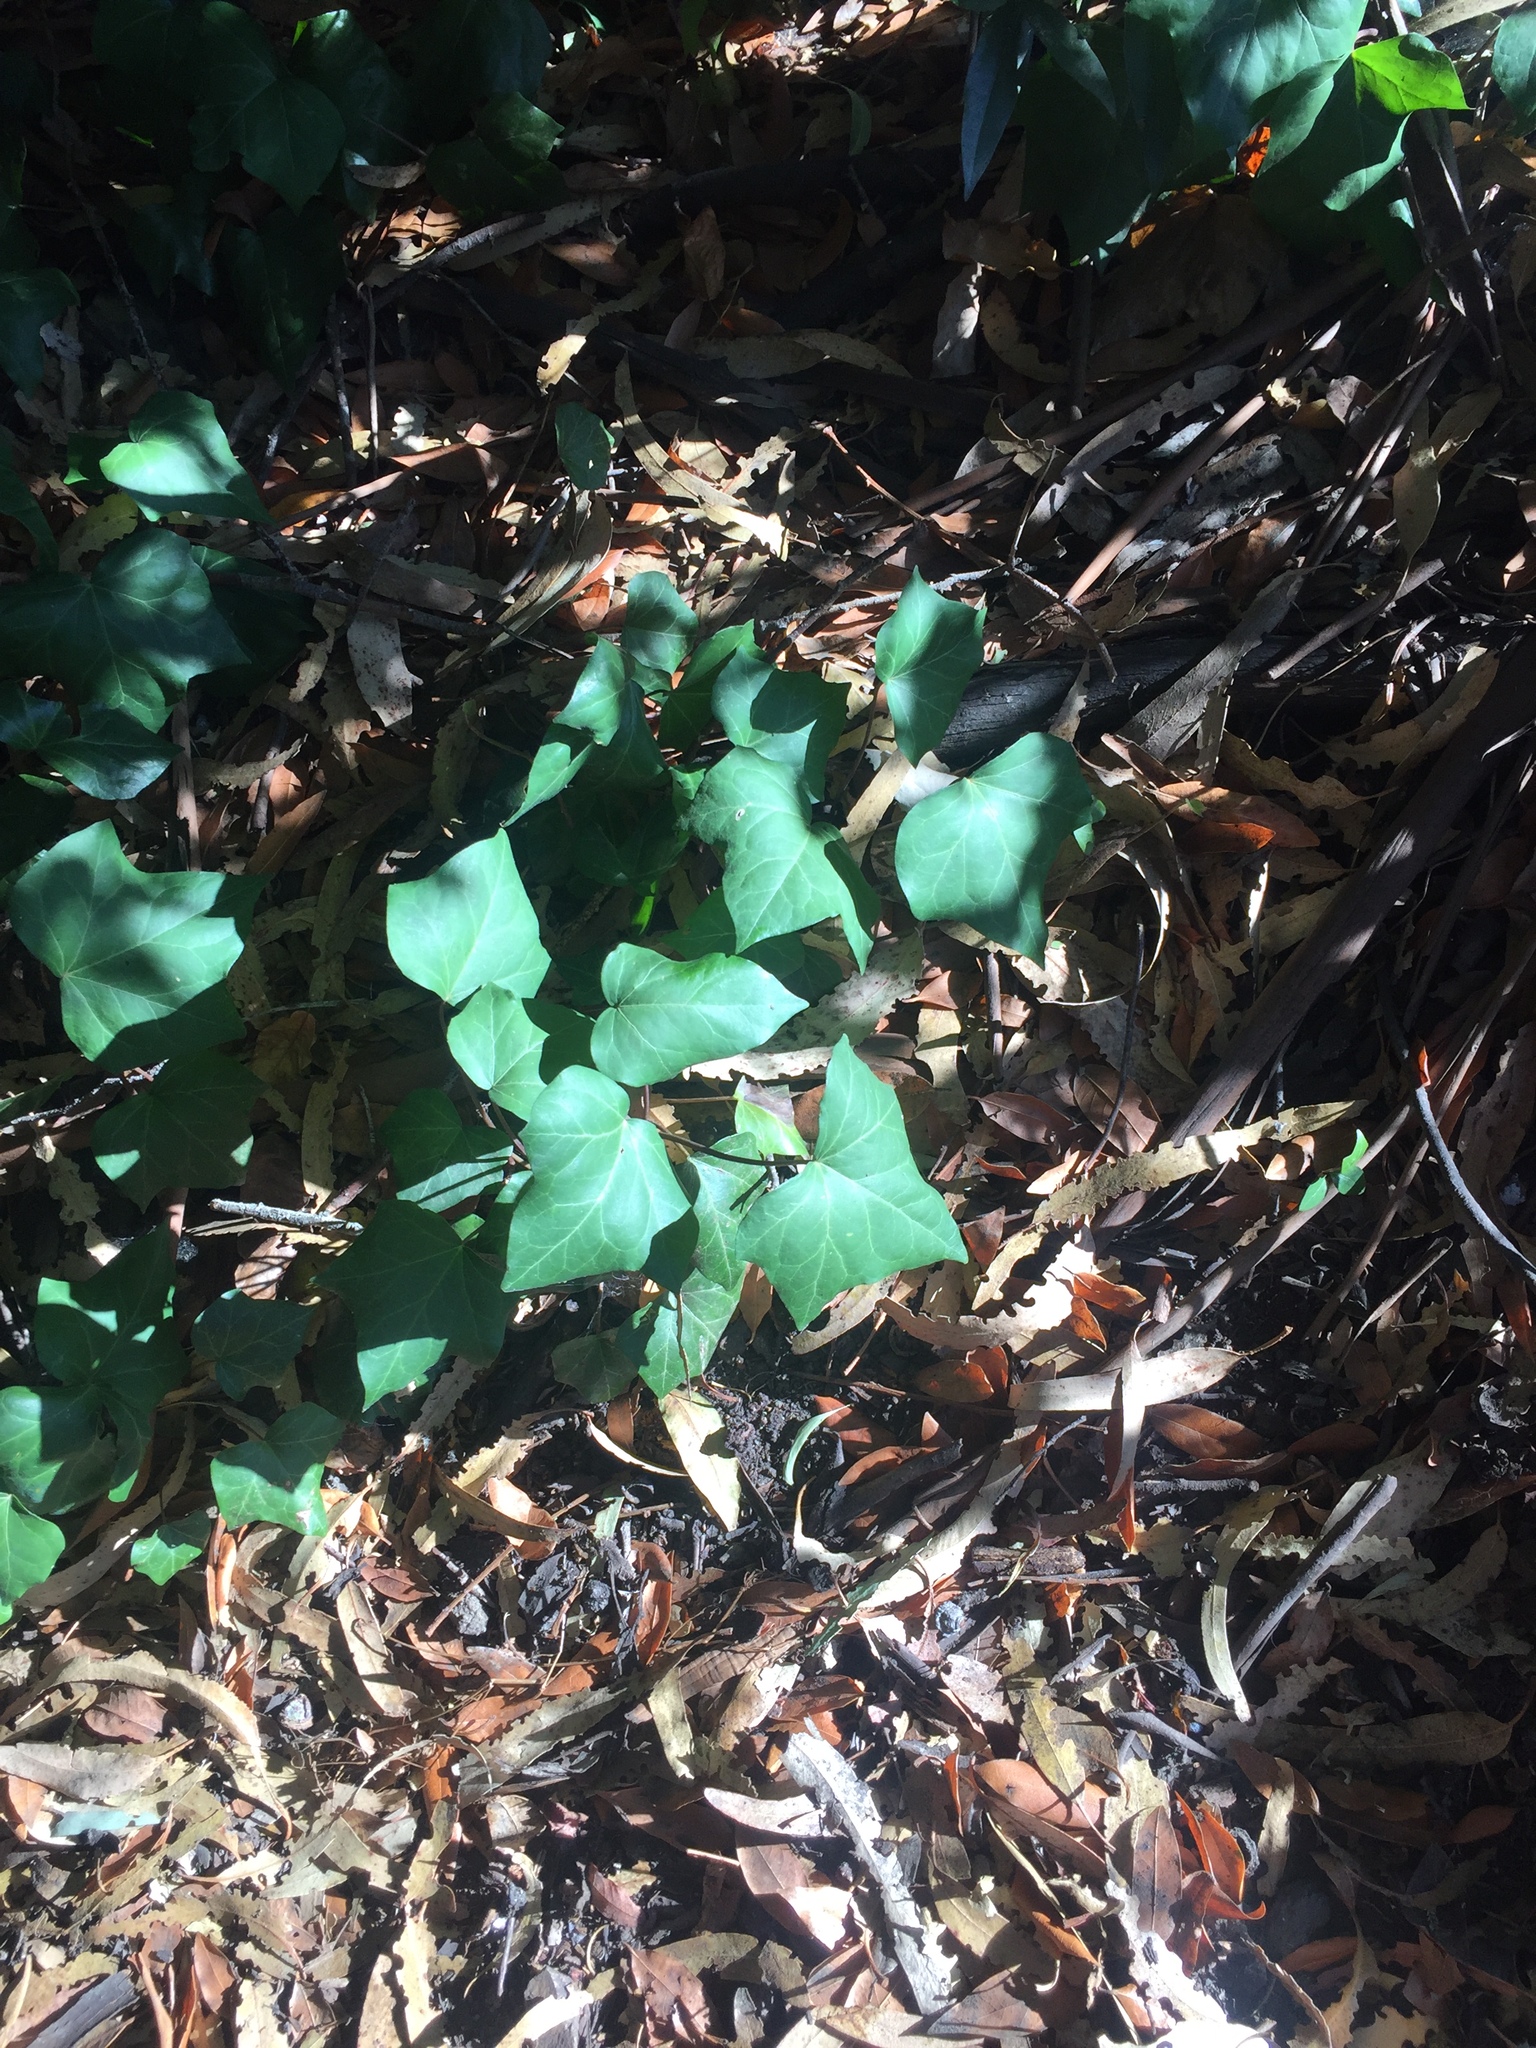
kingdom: Plantae
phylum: Tracheophyta
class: Magnoliopsida
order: Apiales
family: Araliaceae
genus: Hedera
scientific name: Hedera helix
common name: Ivy
